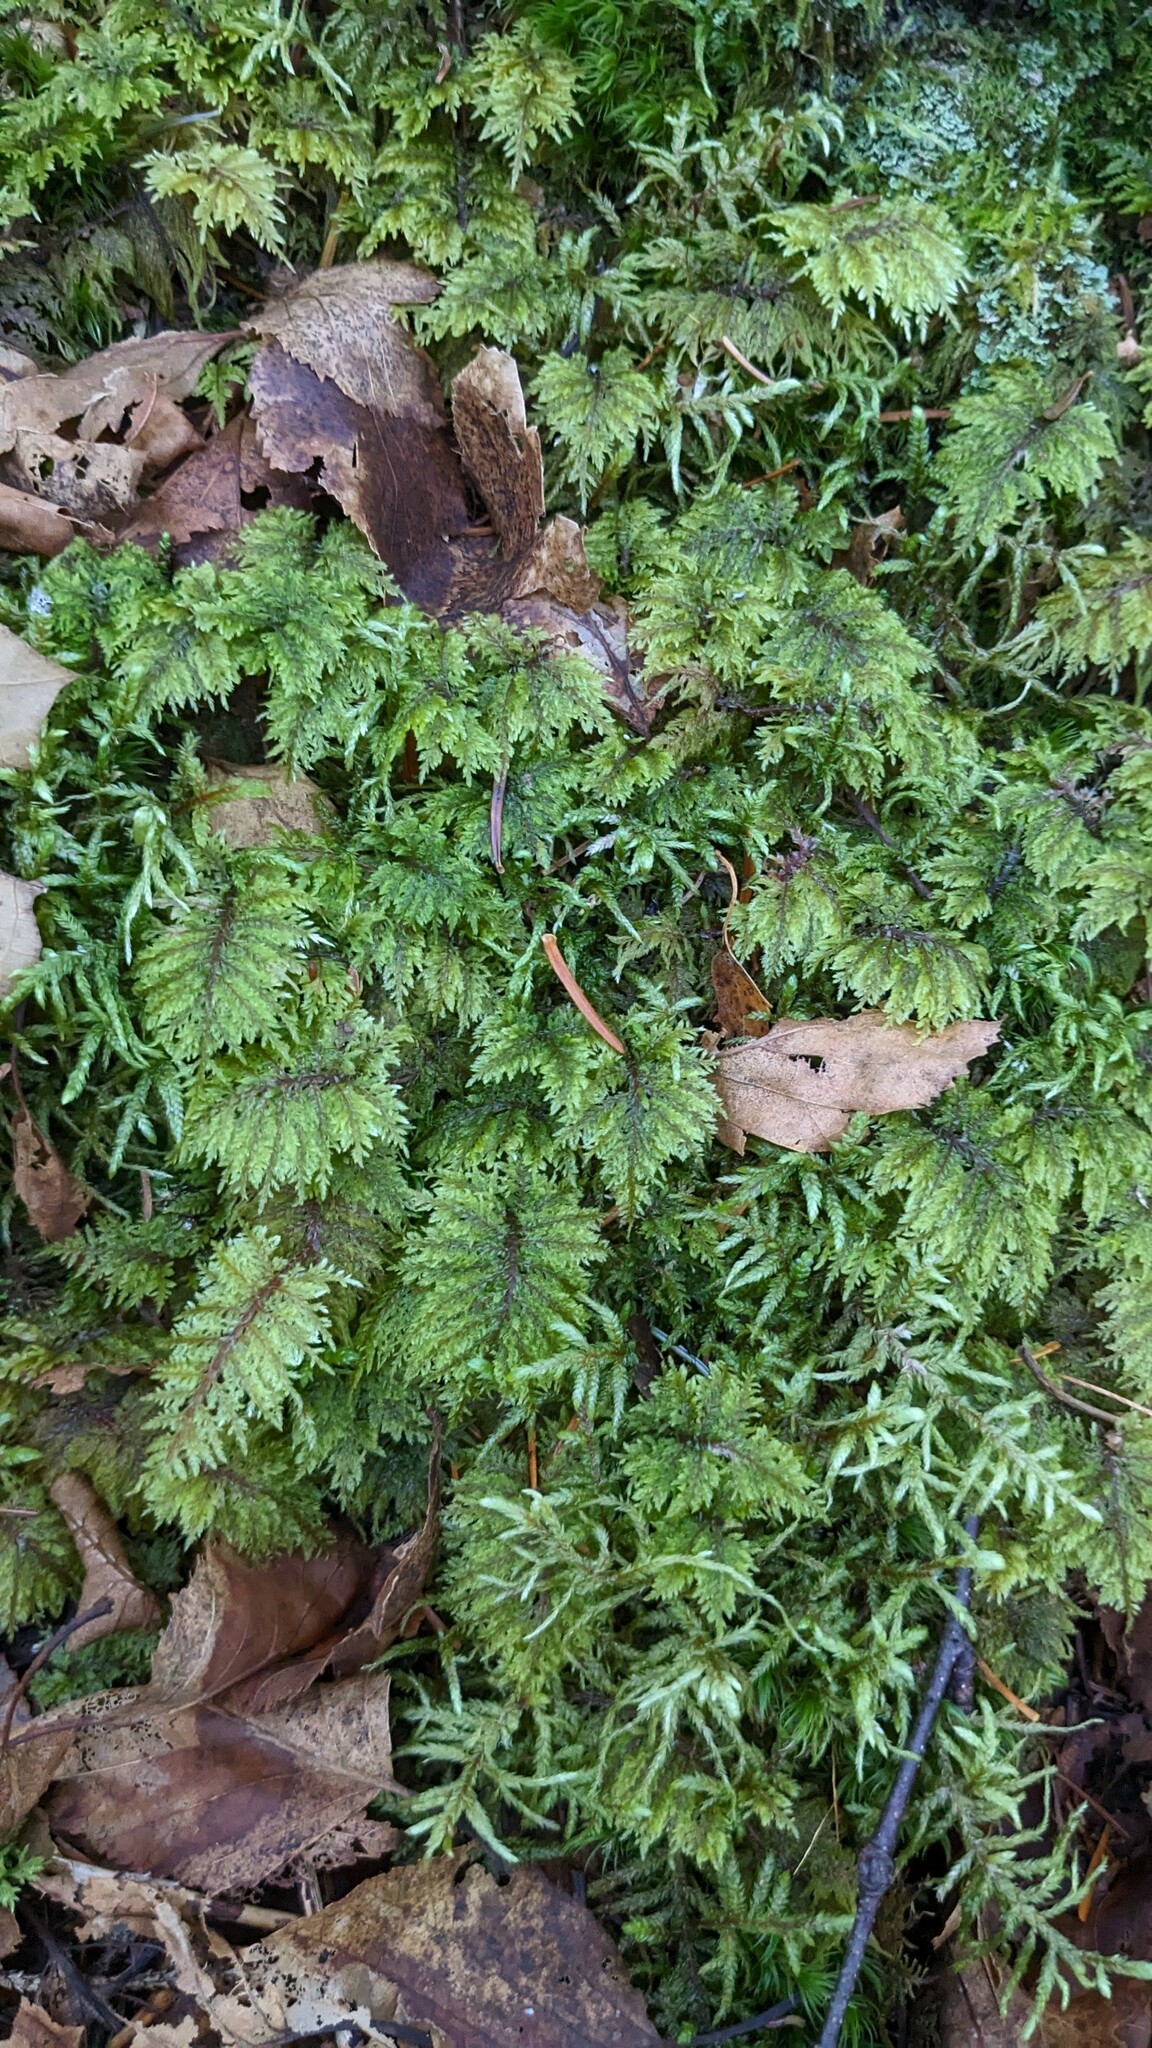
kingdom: Plantae
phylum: Bryophyta
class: Bryopsida
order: Hypnales
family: Hylocomiaceae
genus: Hylocomium
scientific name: Hylocomium splendens
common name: Stairstep moss
